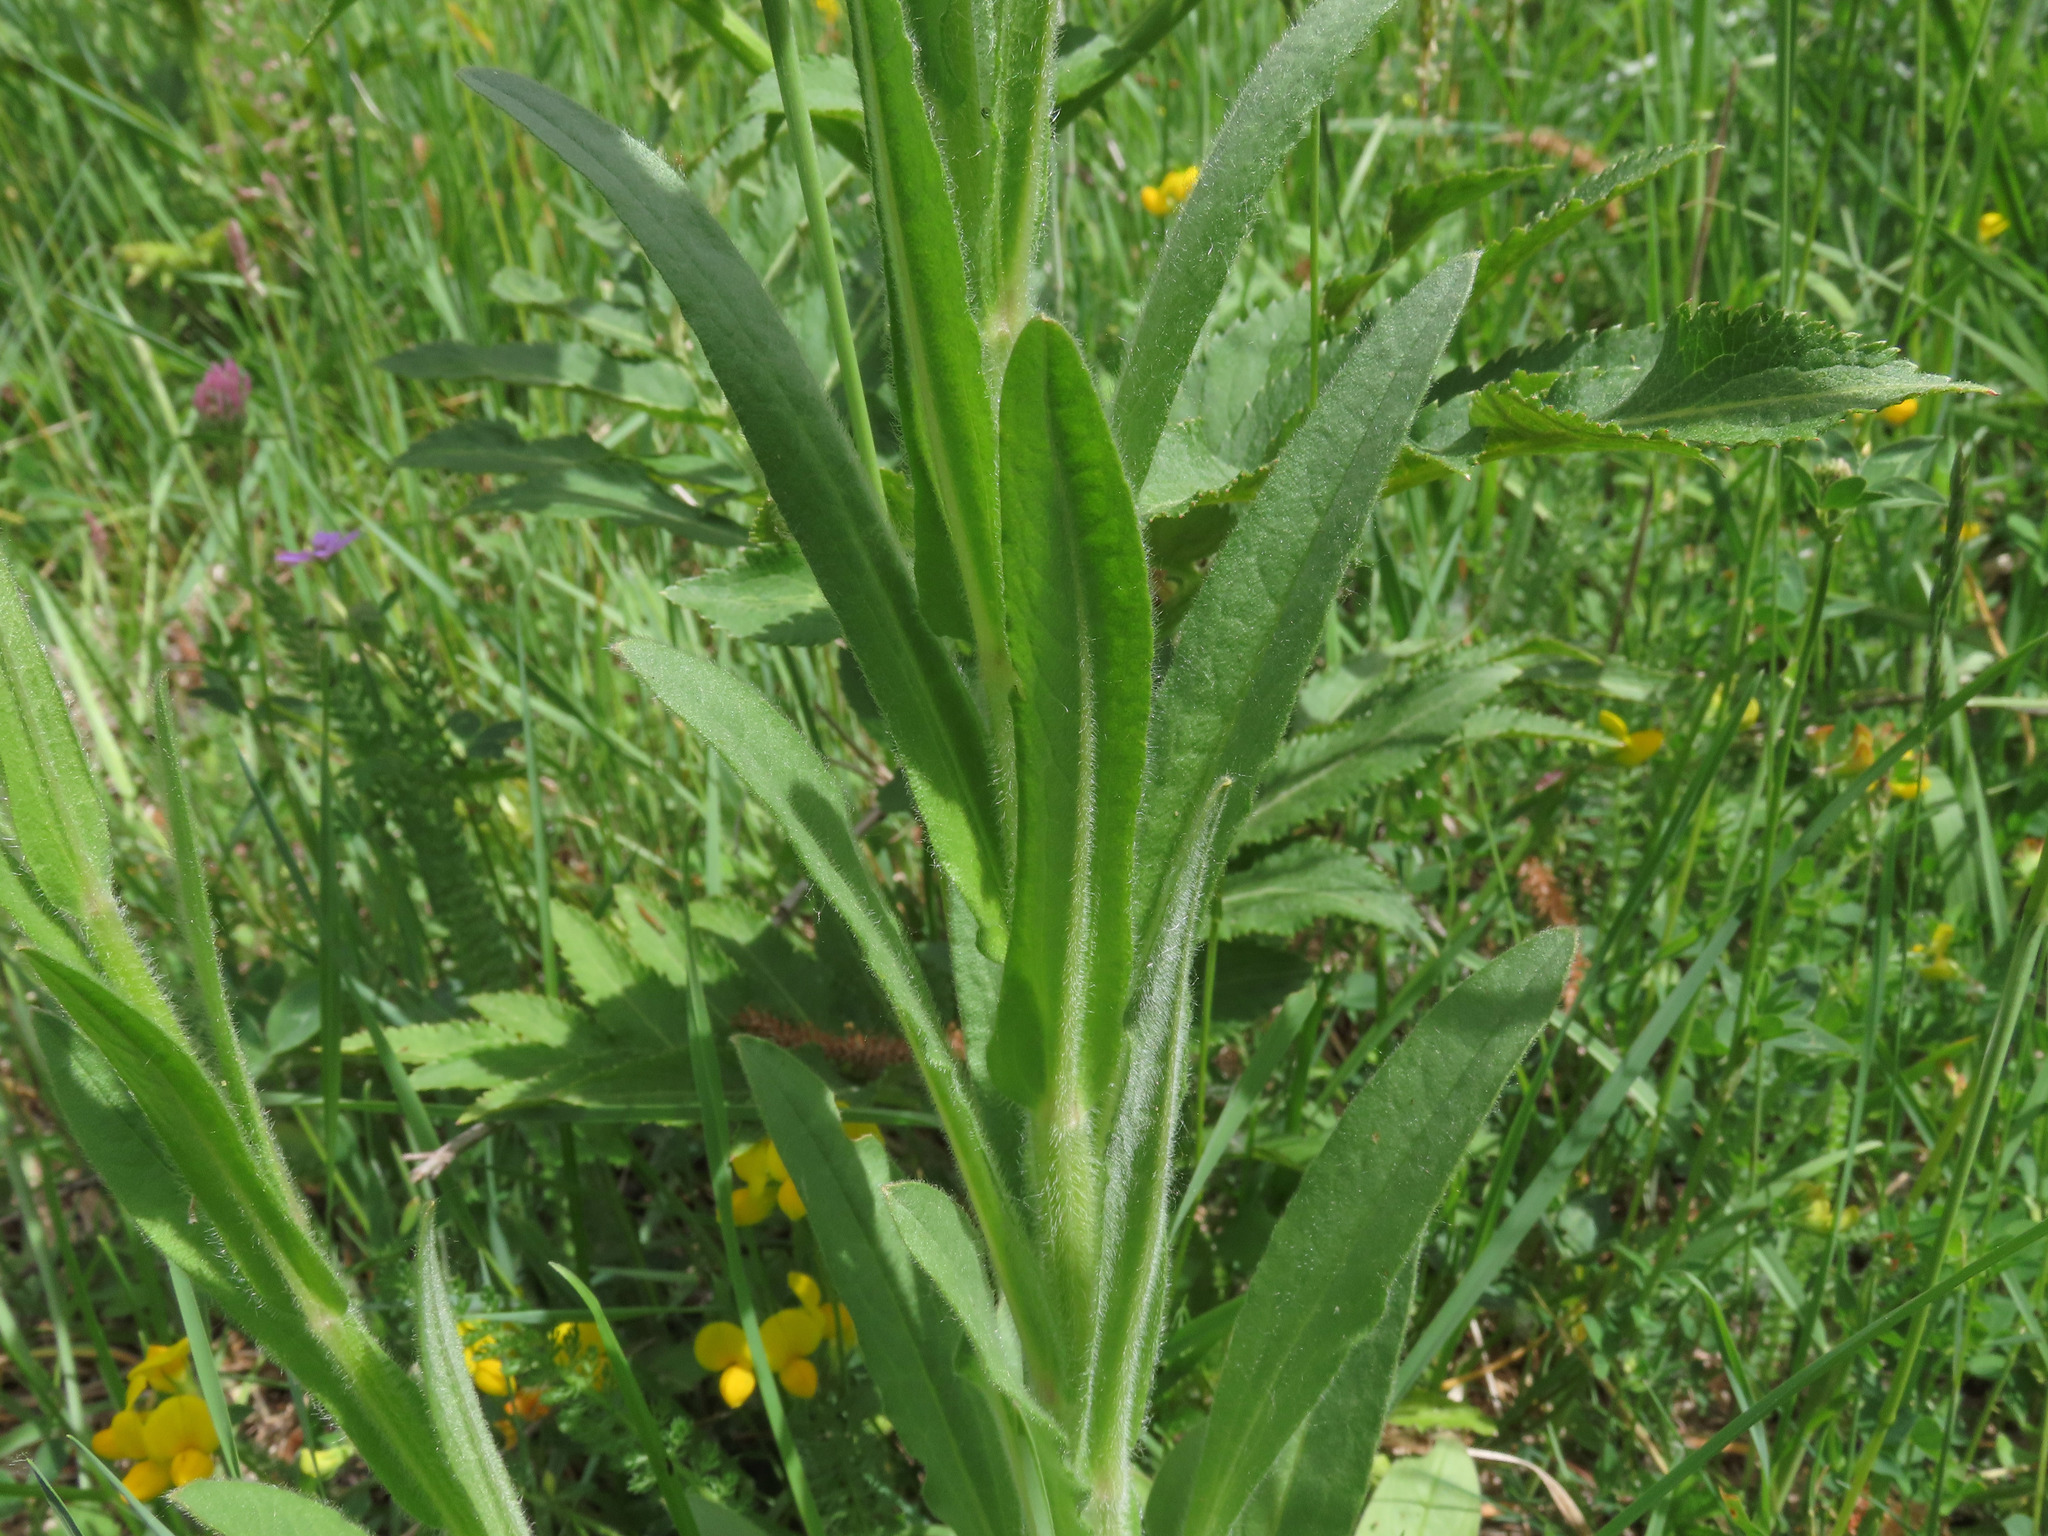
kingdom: Plantae
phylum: Tracheophyta
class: Magnoliopsida
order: Boraginales
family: Boraginaceae
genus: Cynoglossum
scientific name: Cynoglossum montanum
